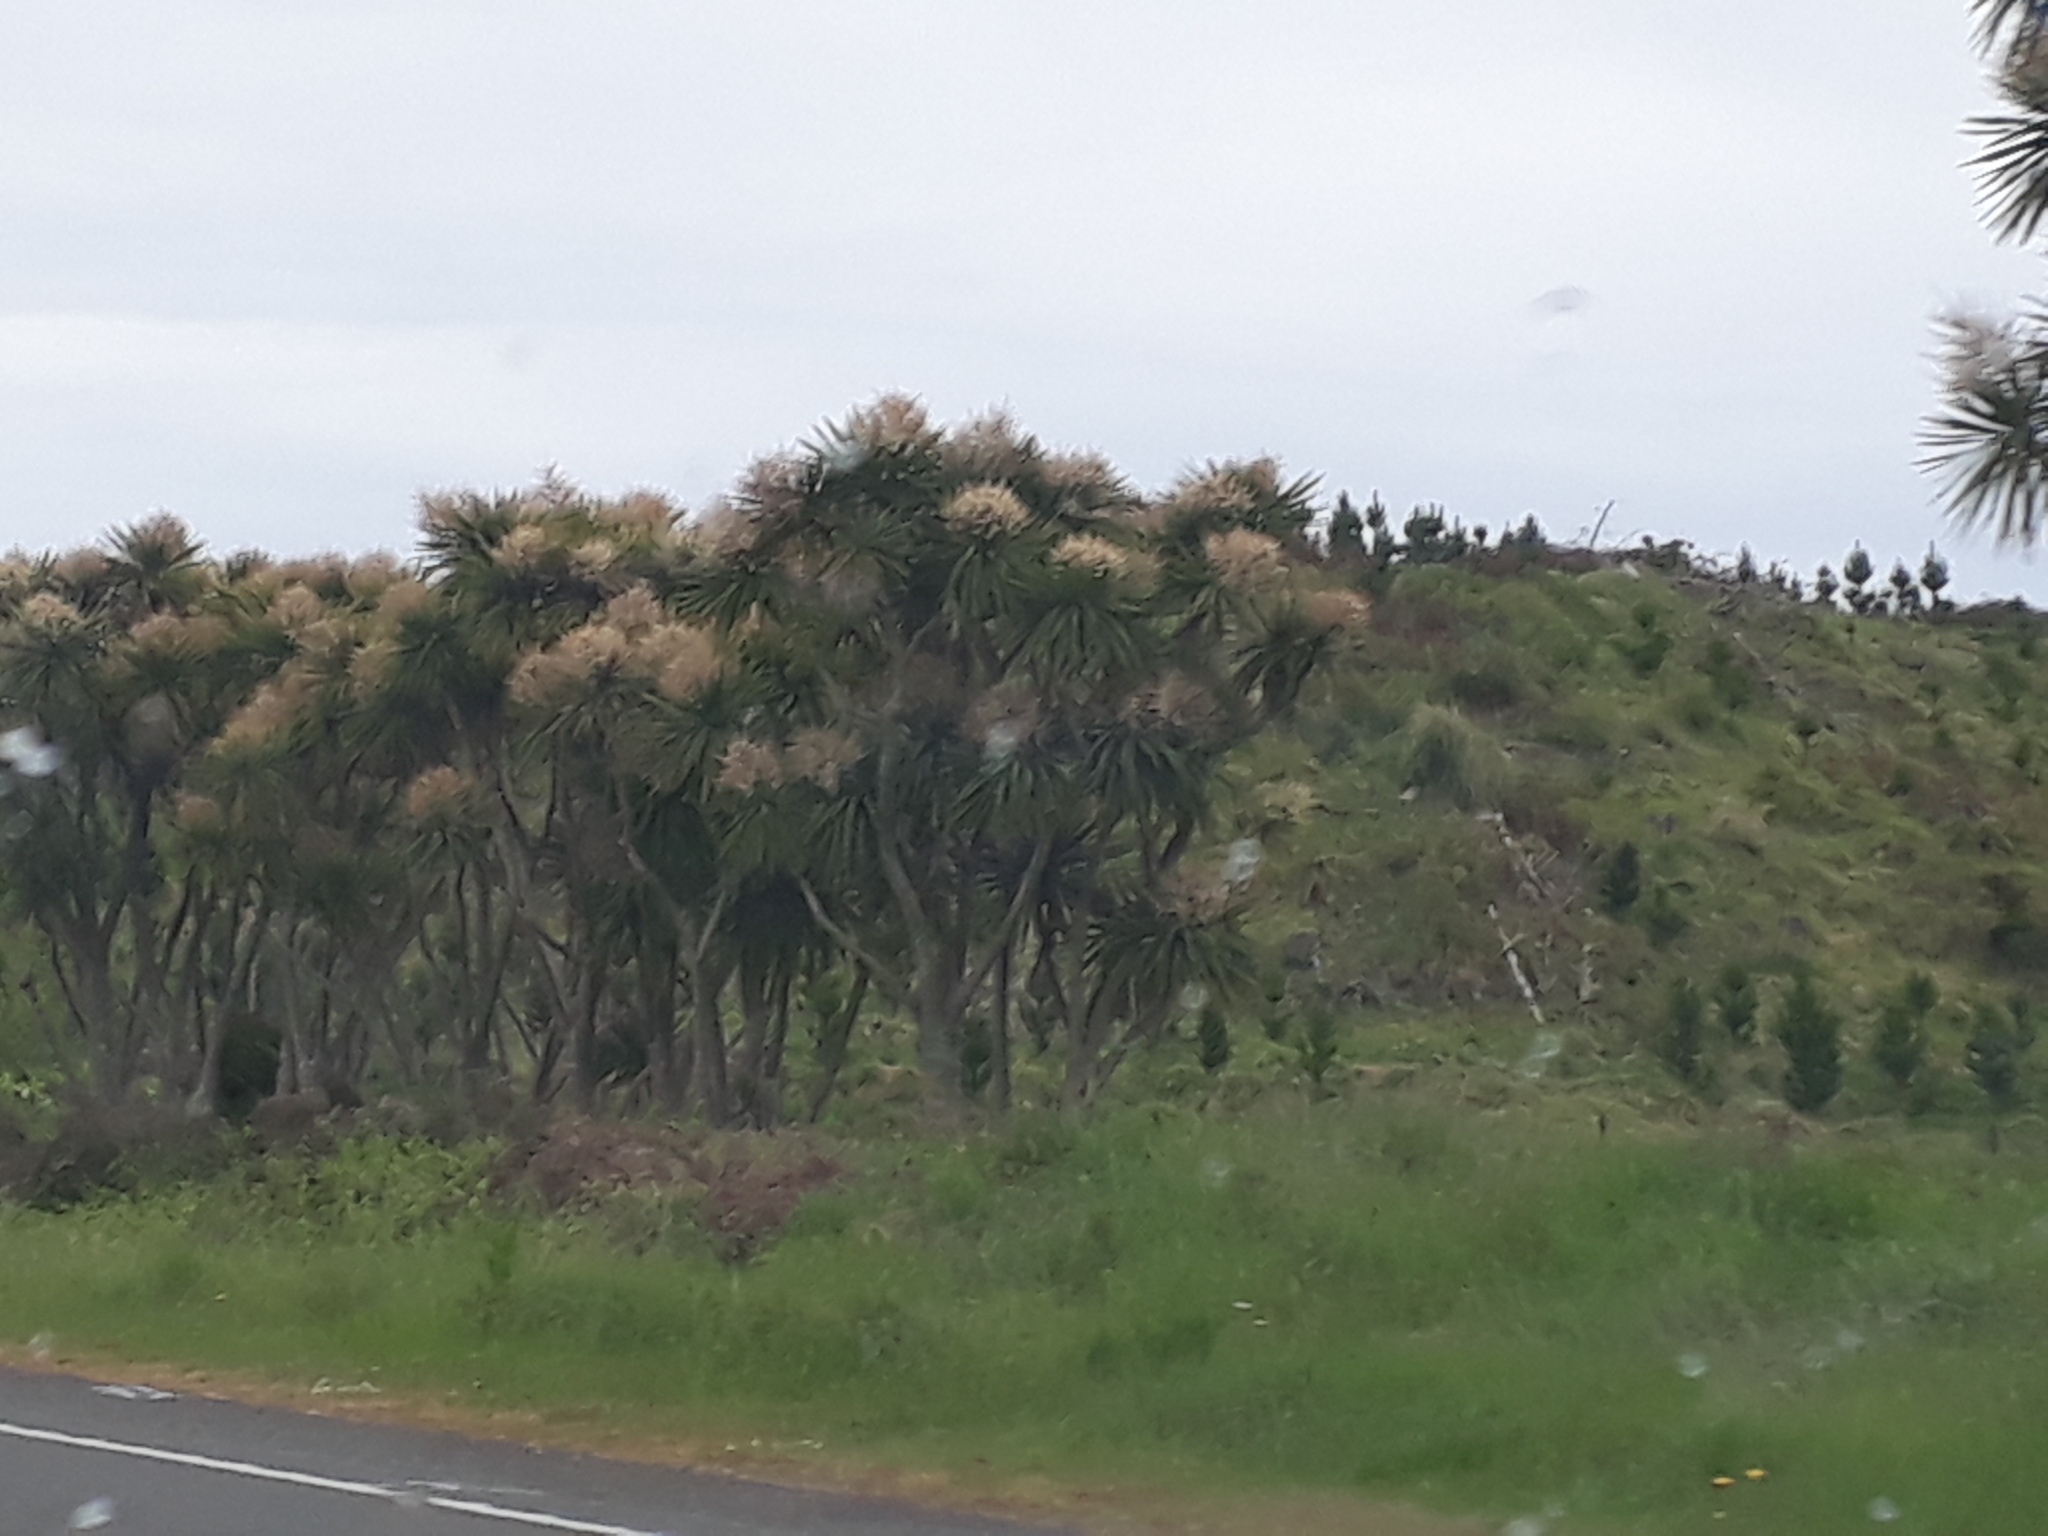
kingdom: Plantae
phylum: Tracheophyta
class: Liliopsida
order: Asparagales
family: Asparagaceae
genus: Cordyline
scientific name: Cordyline australis
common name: Cabbage-palm
